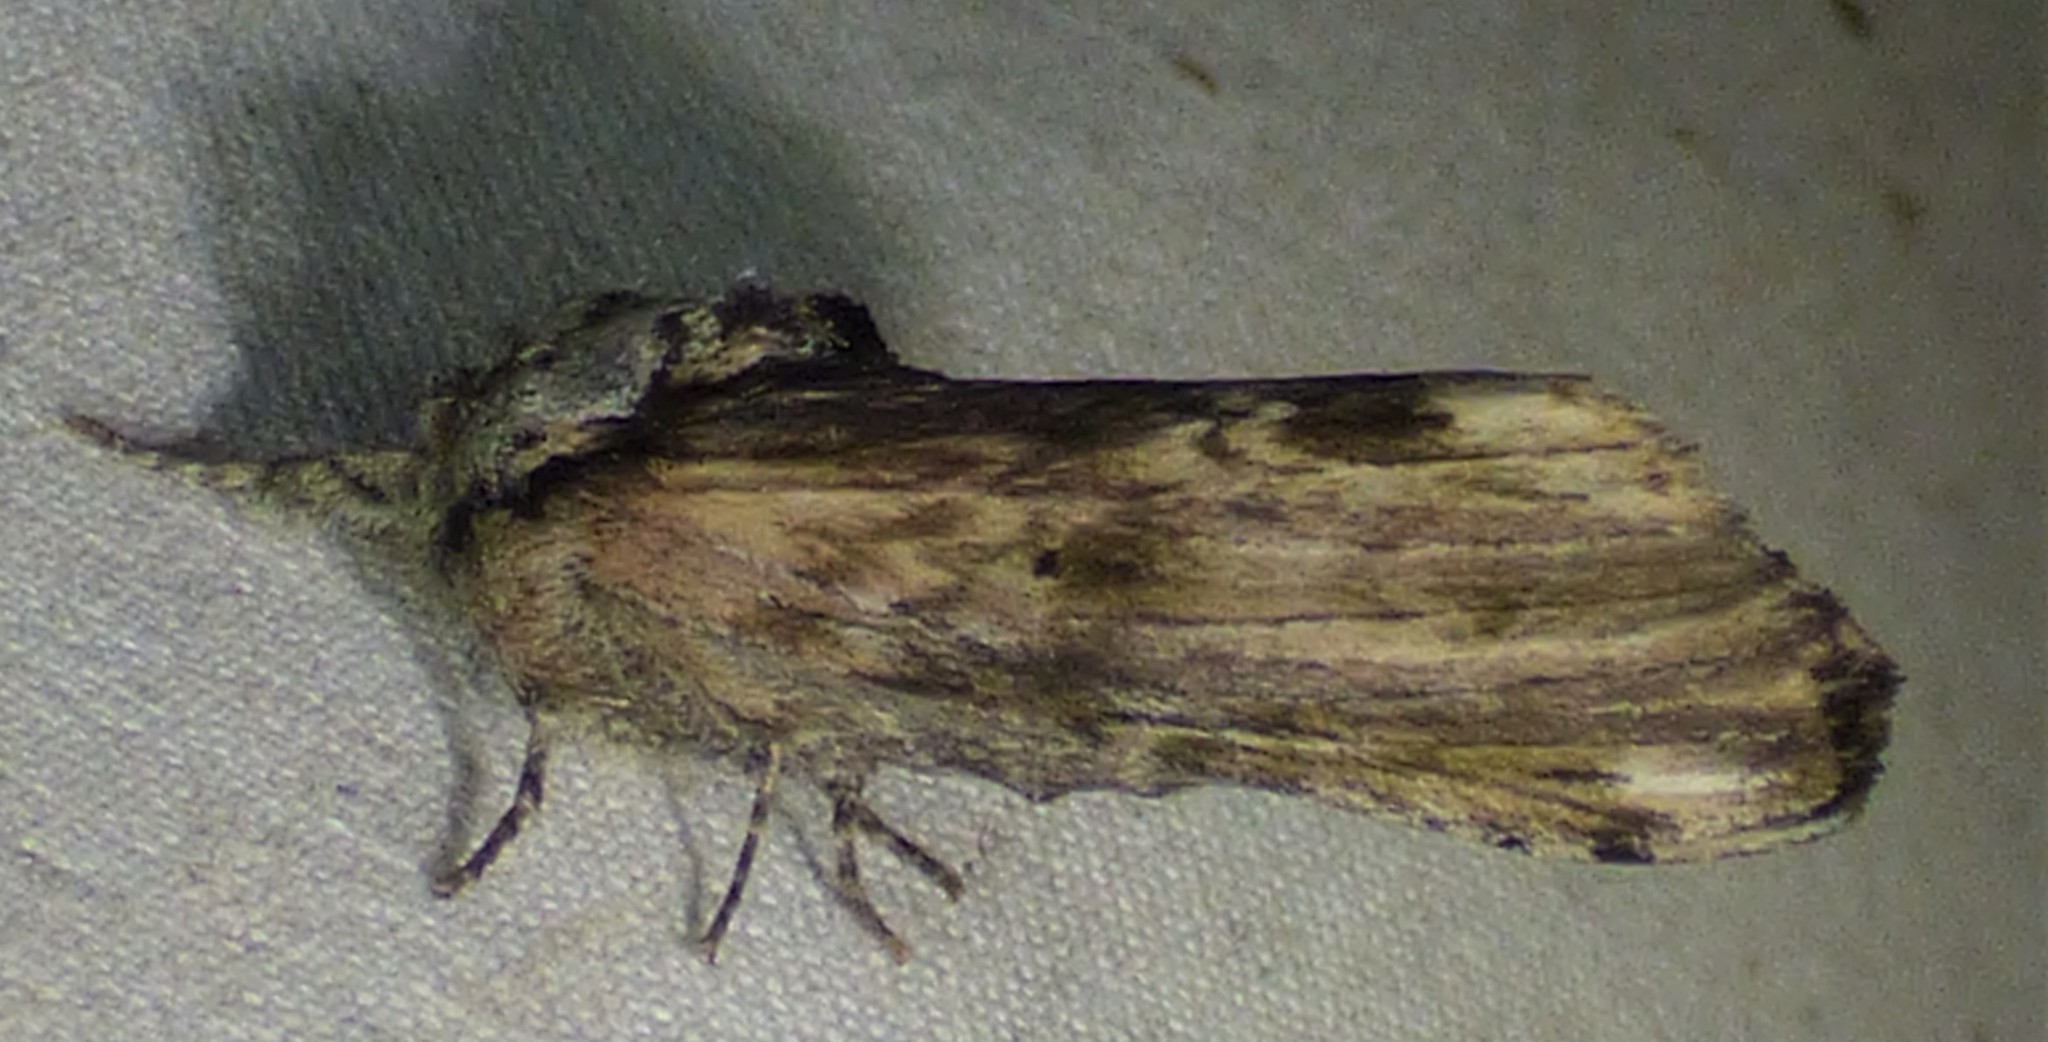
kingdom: Animalia
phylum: Arthropoda
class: Insecta
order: Lepidoptera
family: Notodontidae
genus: Schizura
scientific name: Schizura
